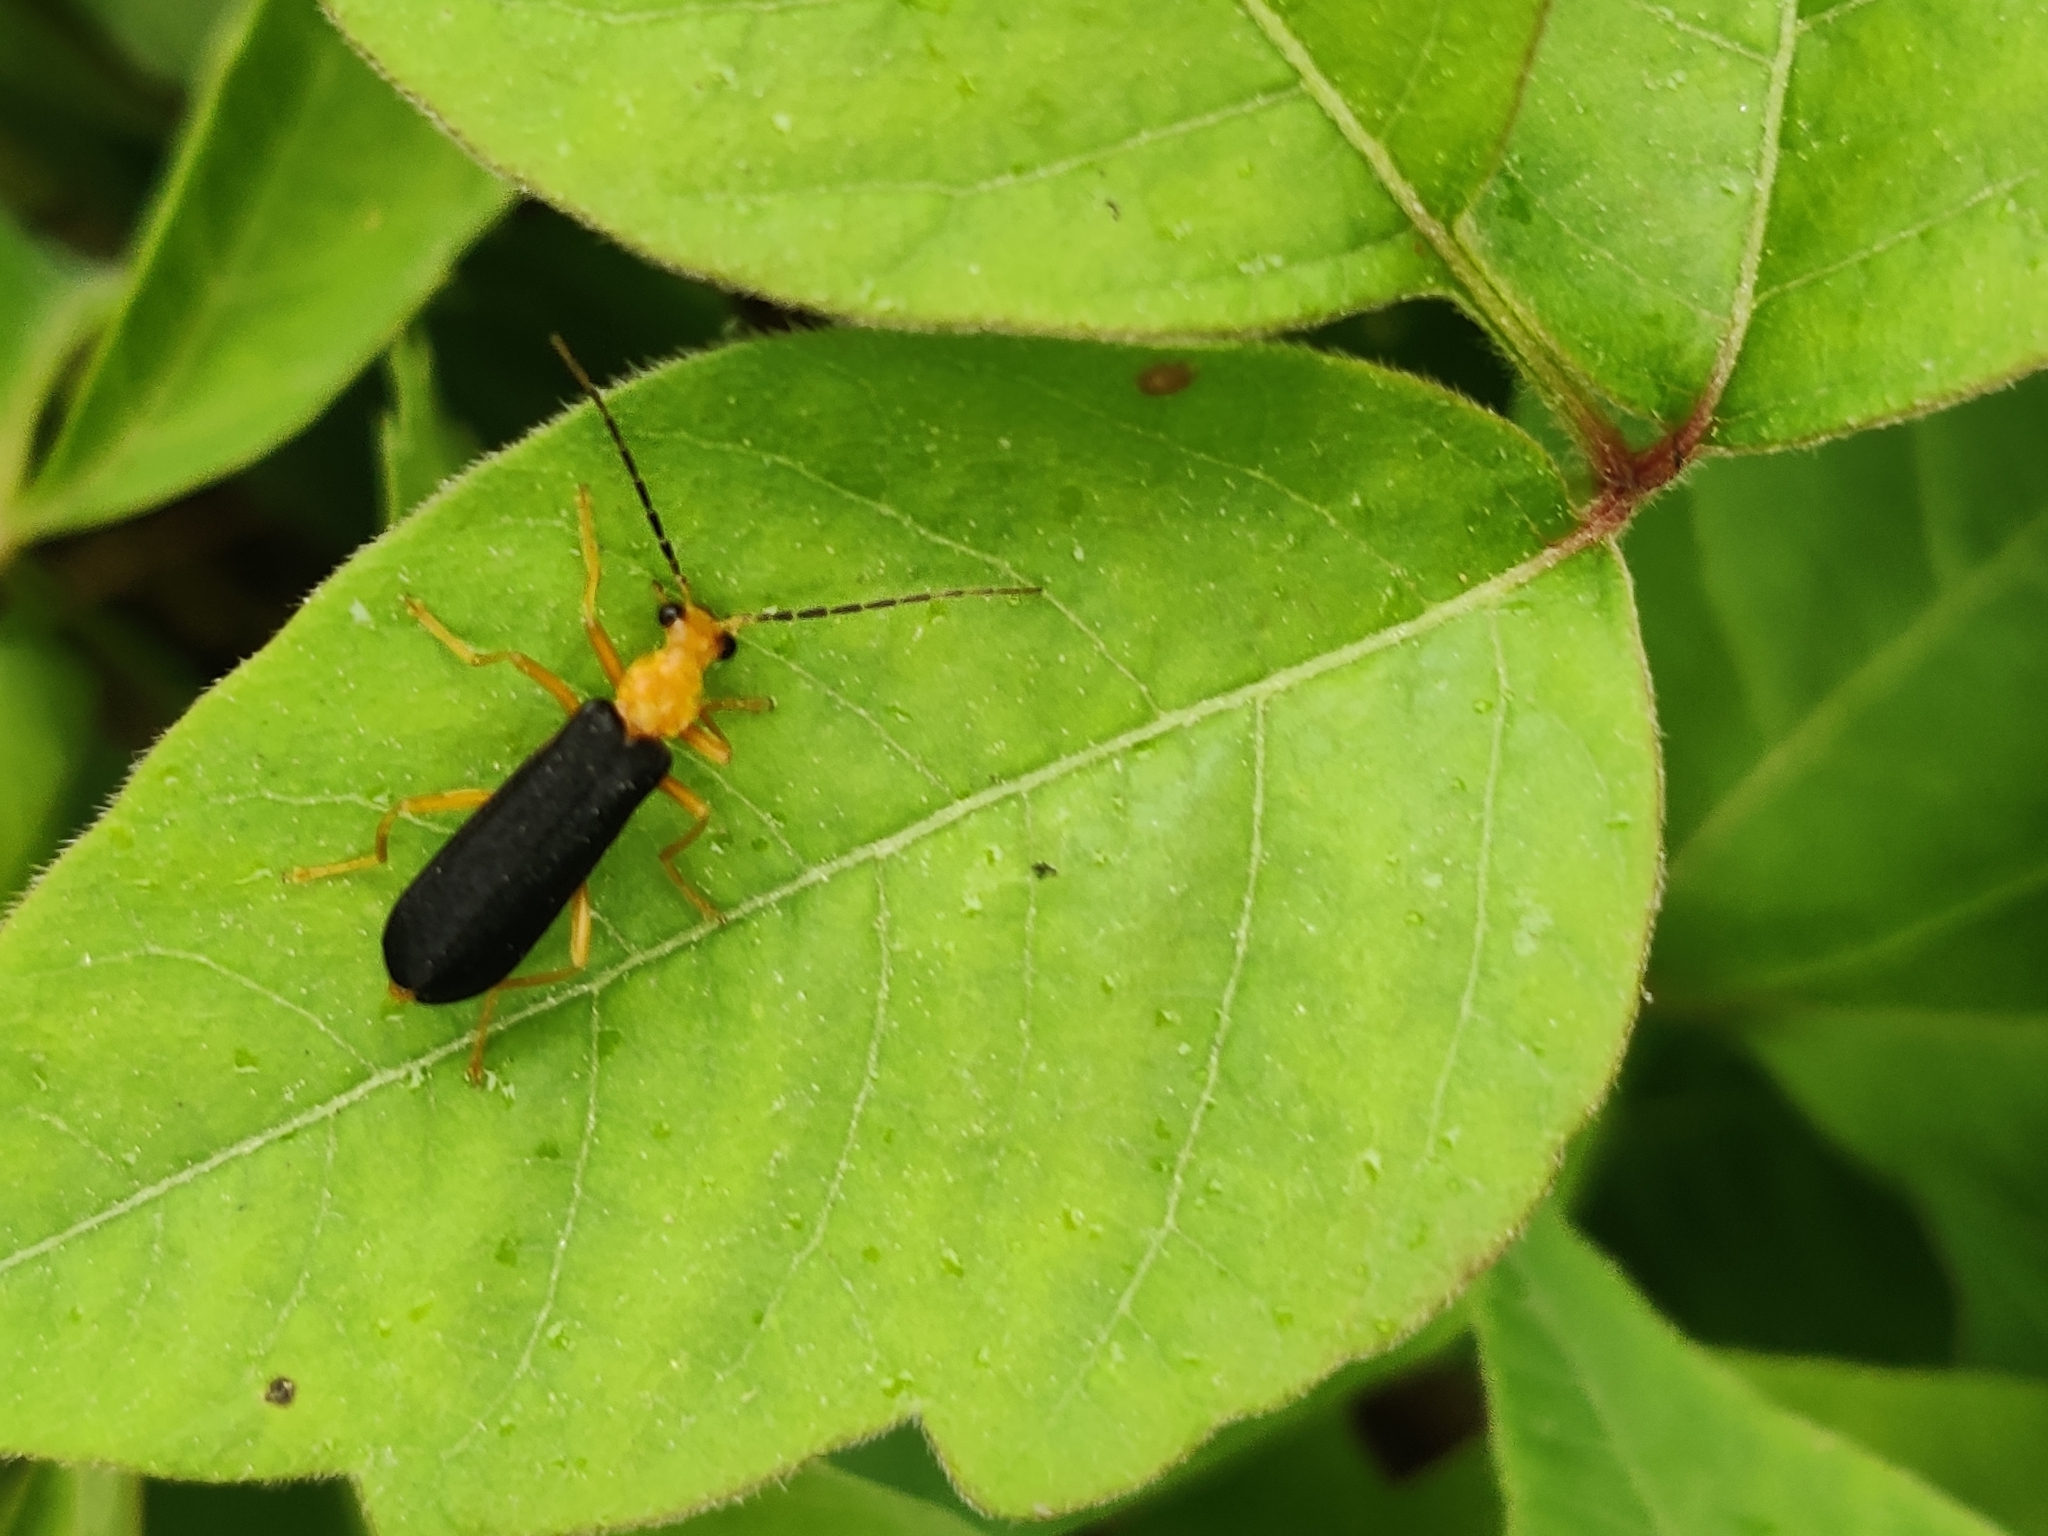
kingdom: Animalia
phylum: Arthropoda
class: Insecta
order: Coleoptera
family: Cantharidae
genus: Podabrus
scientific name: Podabrus fayi
